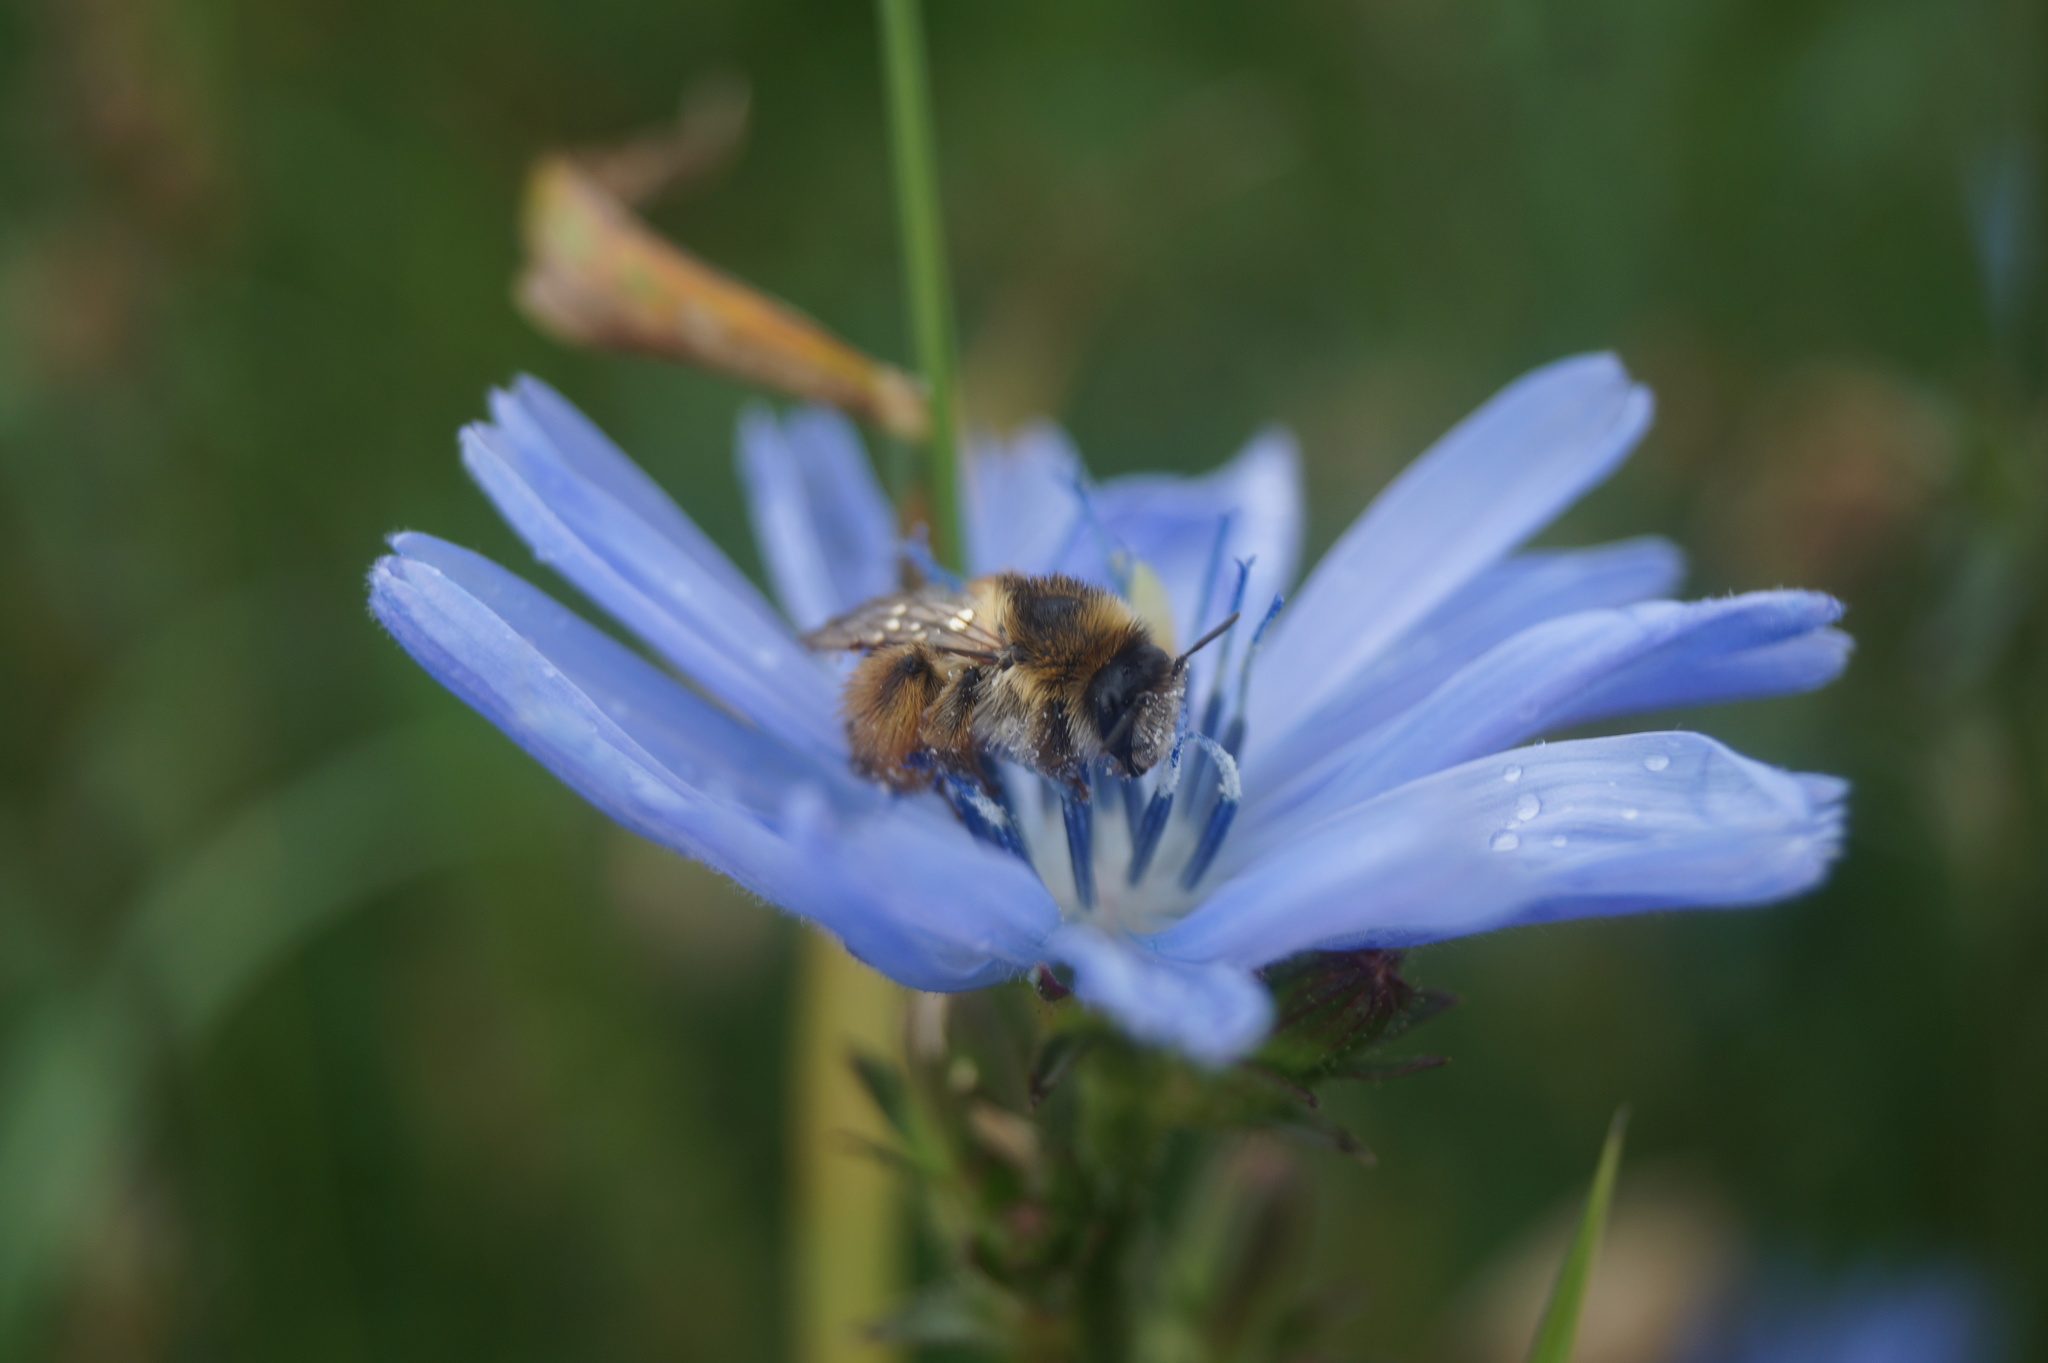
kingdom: Animalia
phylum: Arthropoda
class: Insecta
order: Hymenoptera
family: Melittidae
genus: Dasypoda
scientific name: Dasypoda hirtipes
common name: Pantaloon bee
